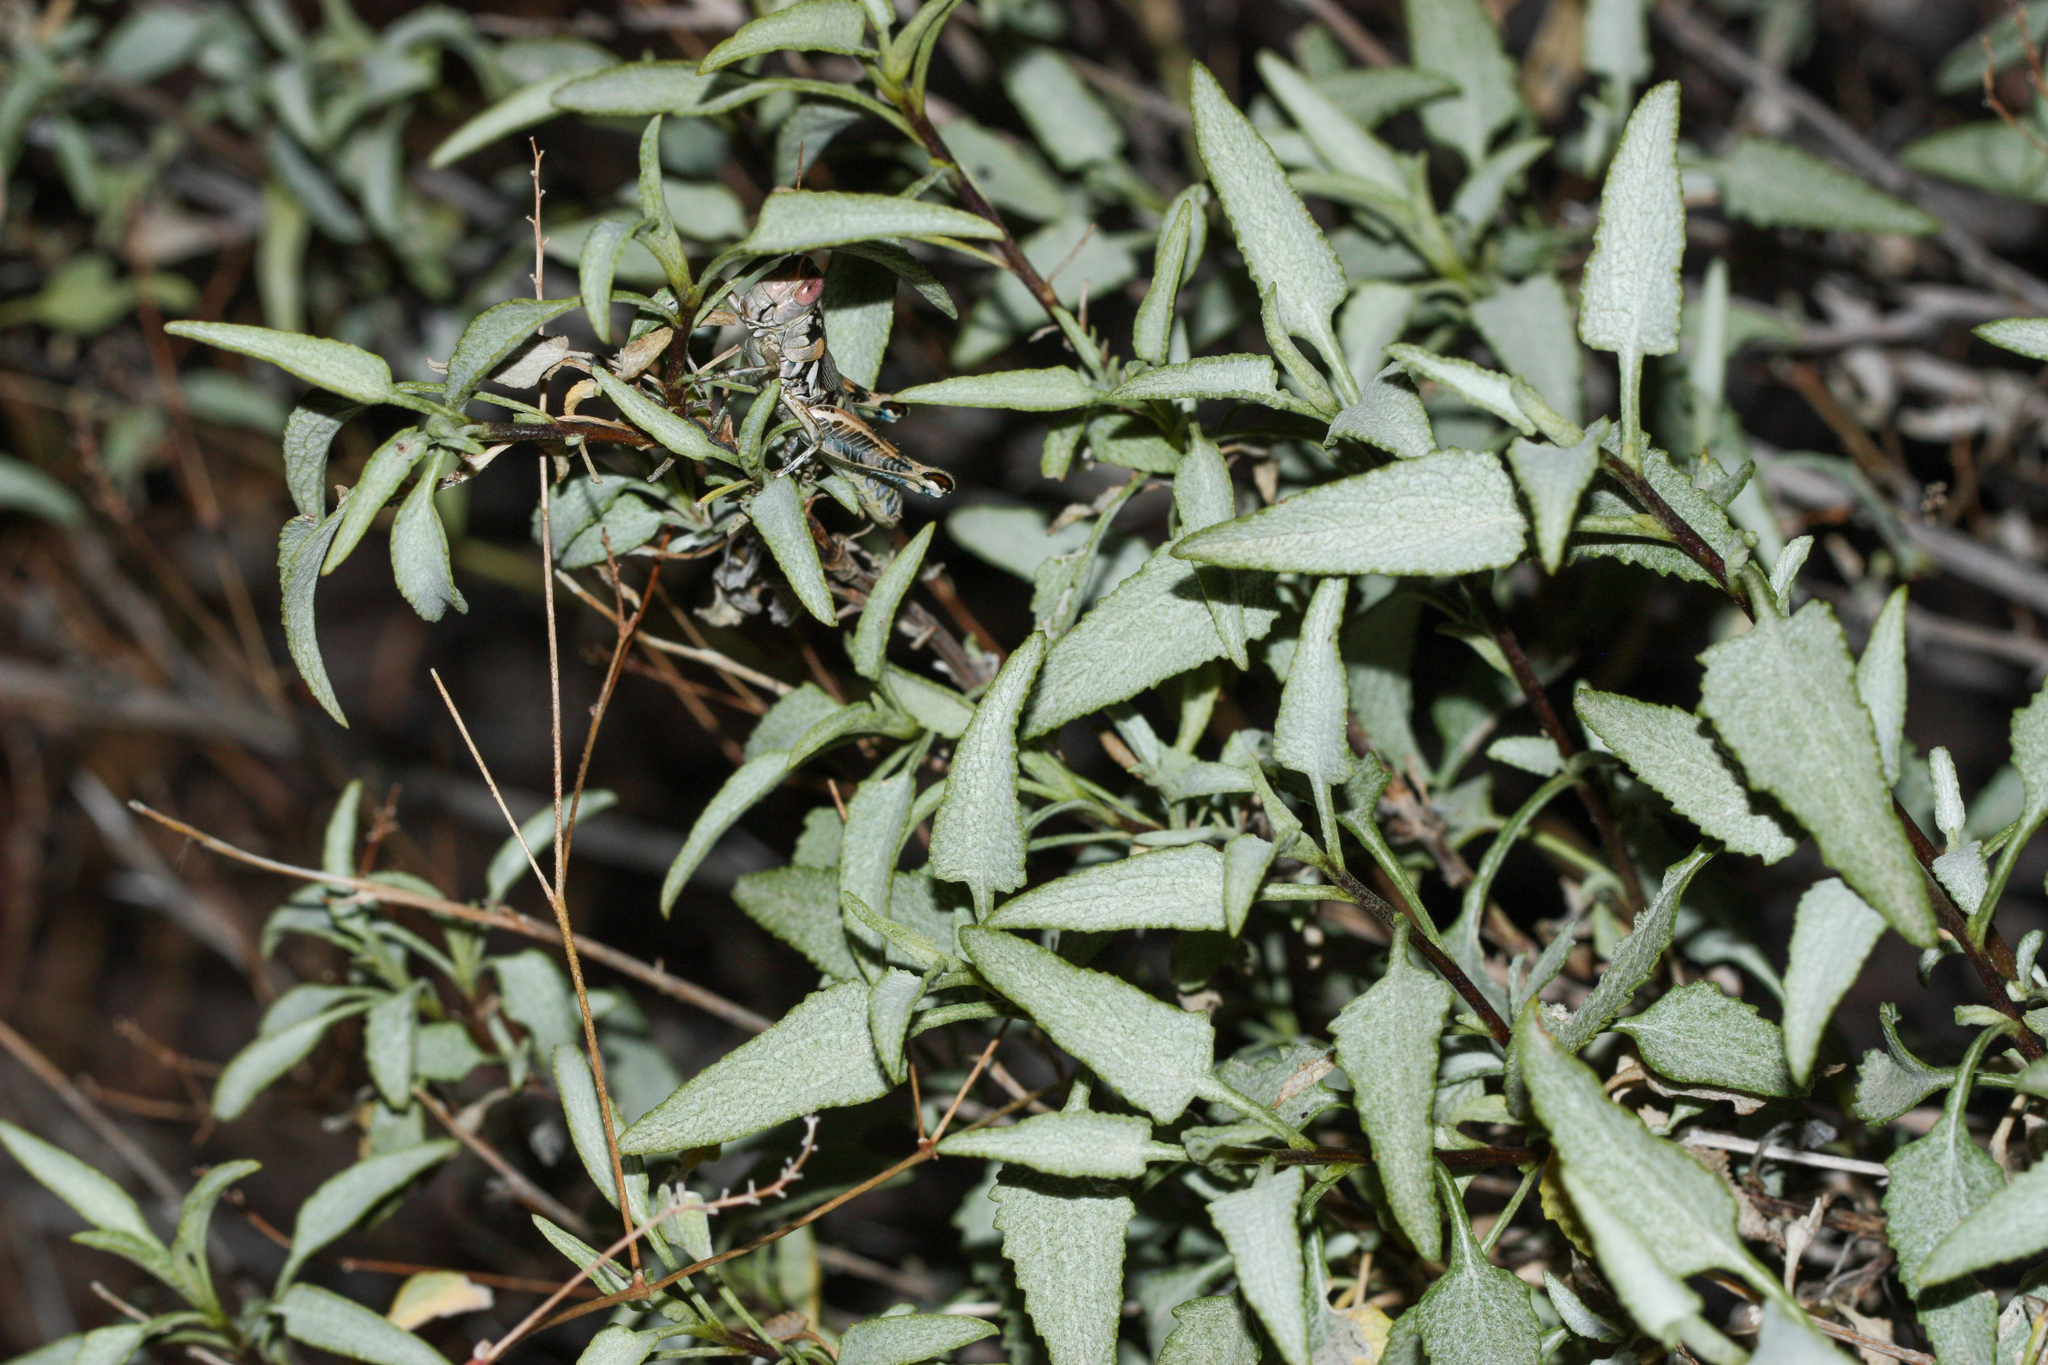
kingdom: Plantae
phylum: Tracheophyta
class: Magnoliopsida
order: Asterales
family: Asteraceae
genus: Ambrosia
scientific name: Ambrosia deltoidea
